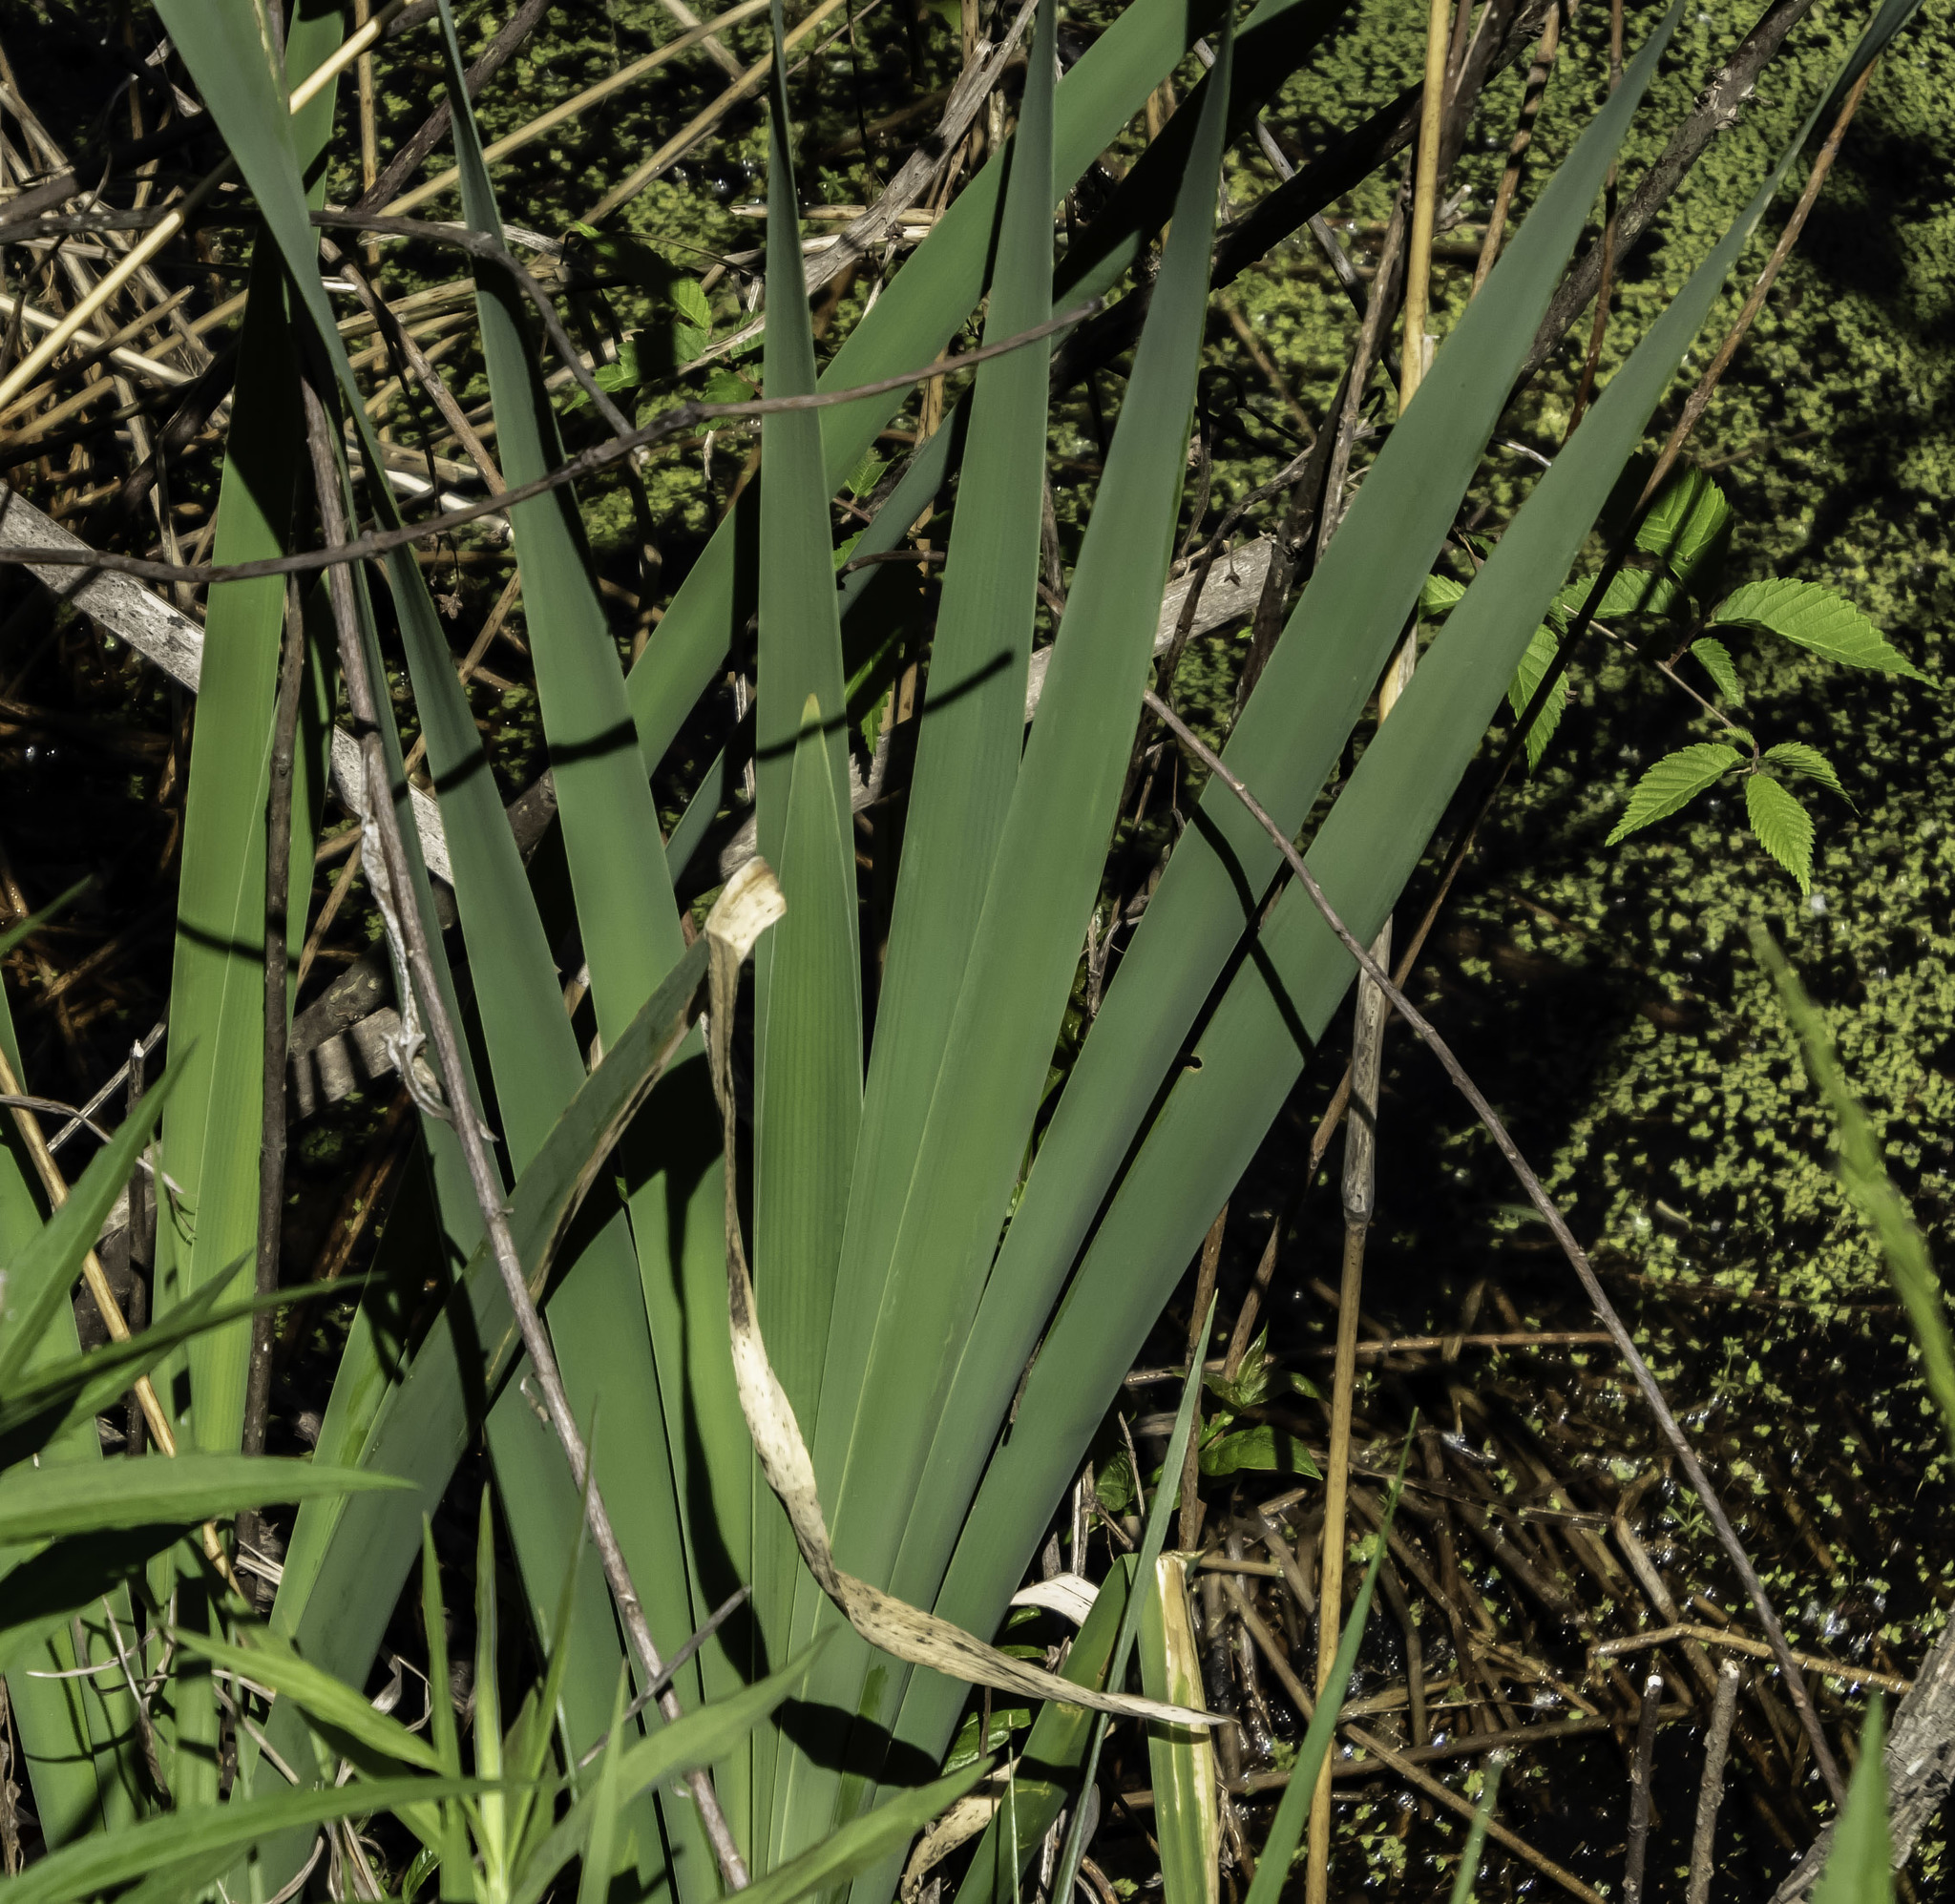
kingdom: Plantae
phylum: Tracheophyta
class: Liliopsida
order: Poales
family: Typhaceae
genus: Typha
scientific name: Typha latifolia
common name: Broadleaf cattail
